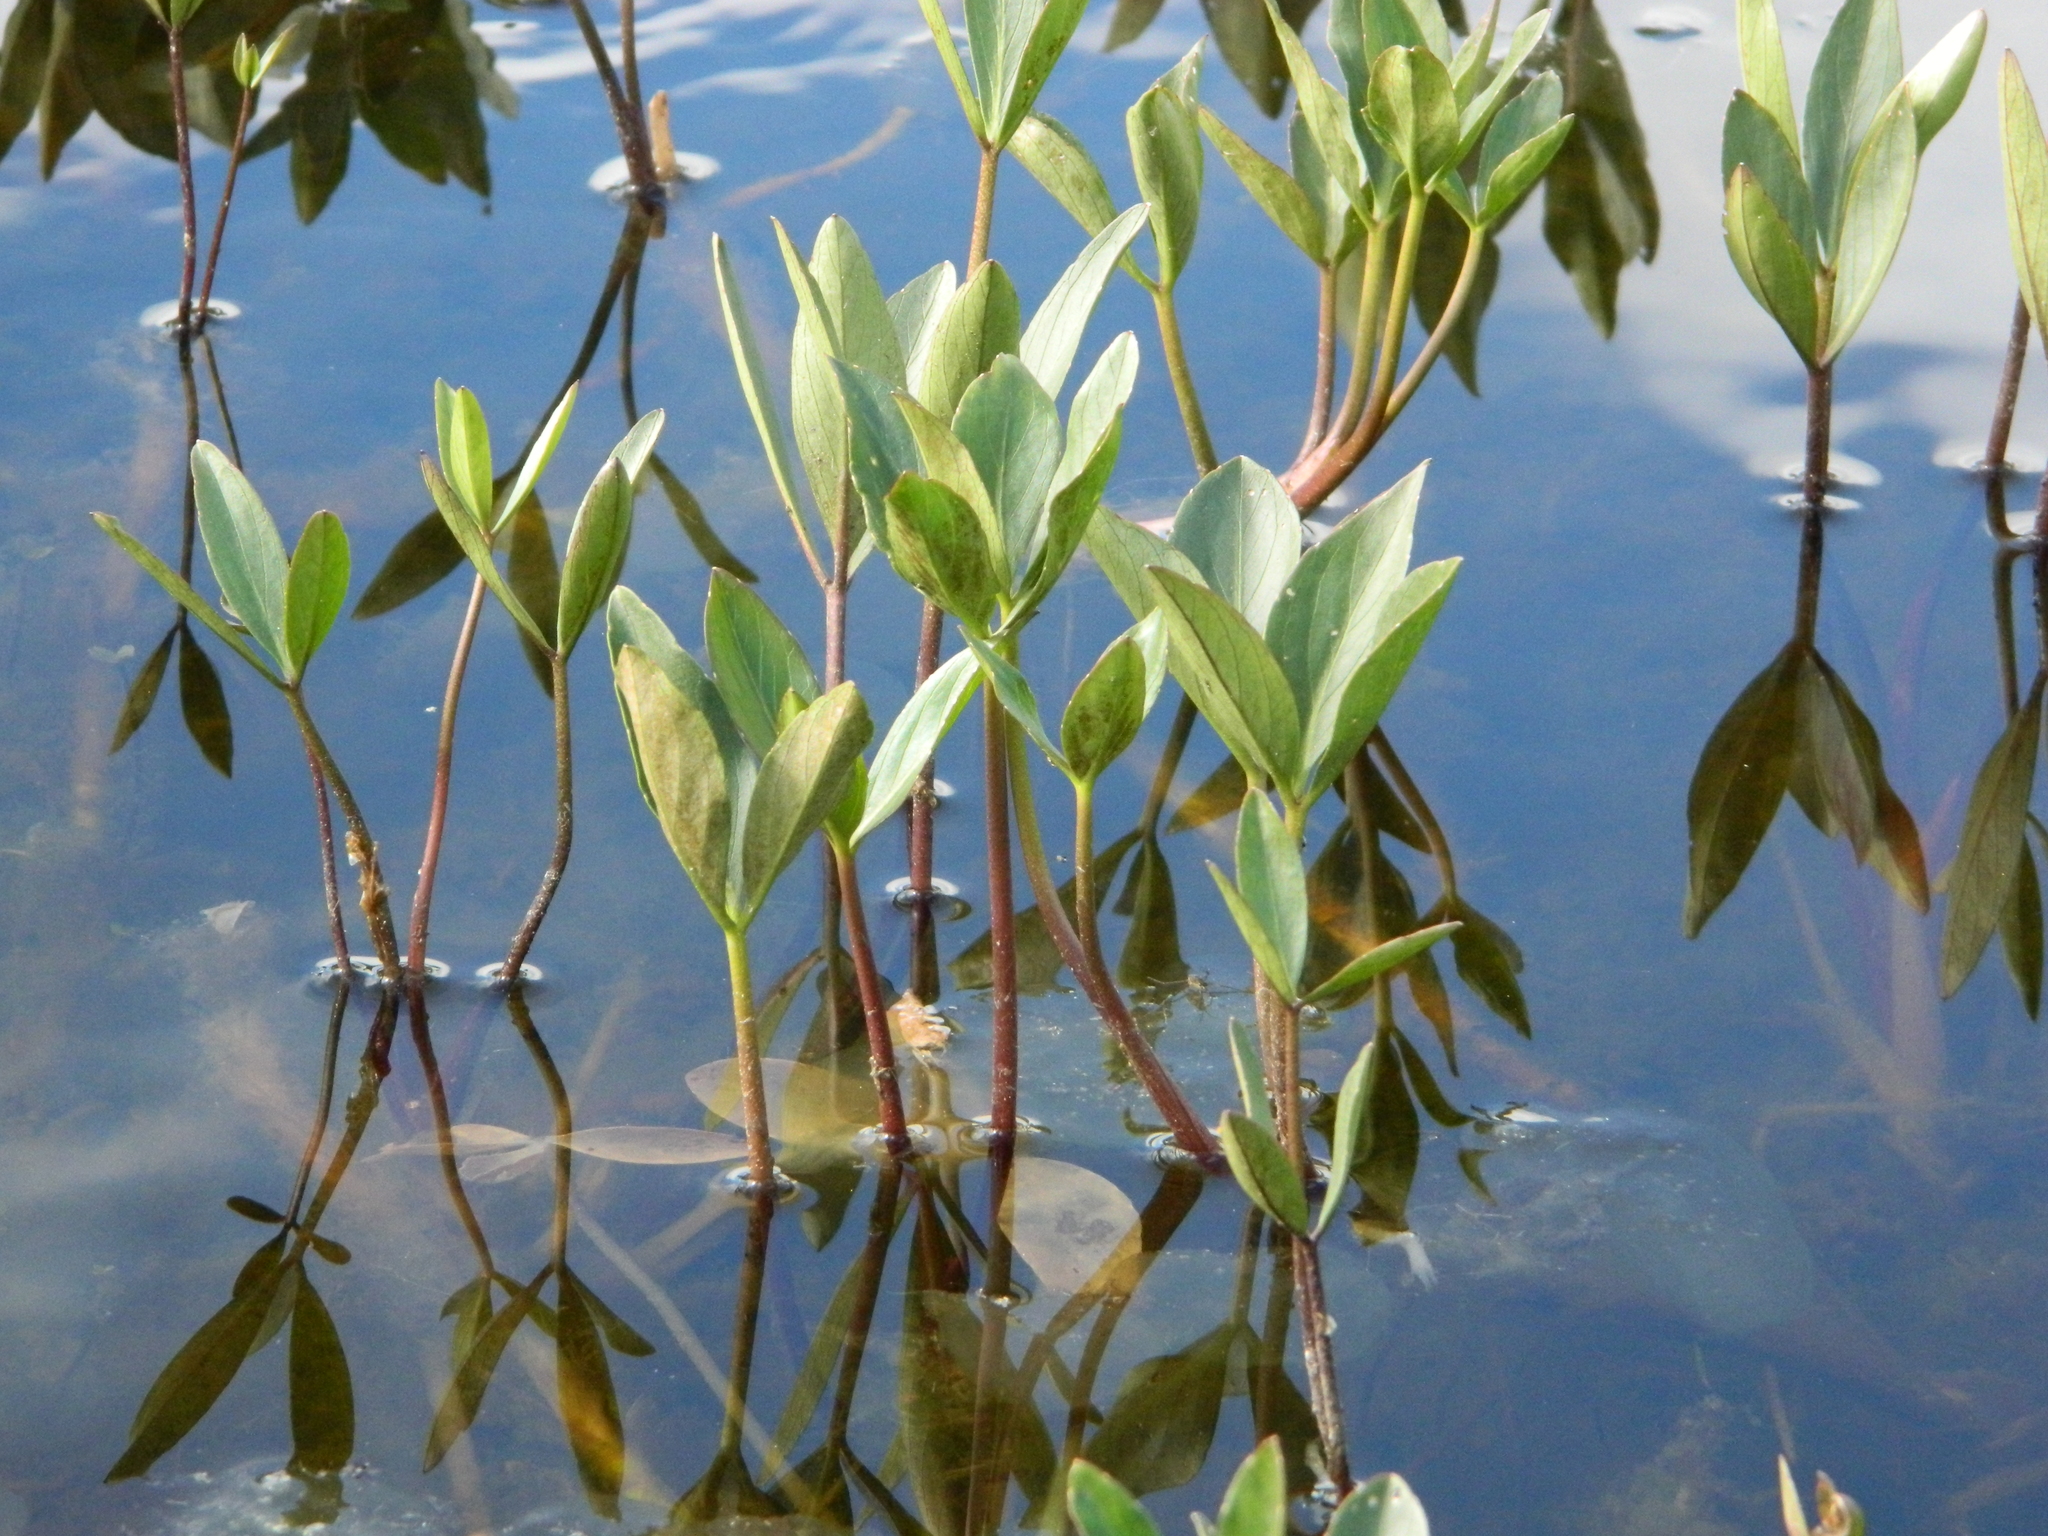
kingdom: Plantae
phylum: Tracheophyta
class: Magnoliopsida
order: Asterales
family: Menyanthaceae
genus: Menyanthes
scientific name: Menyanthes trifoliata
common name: Bogbean
